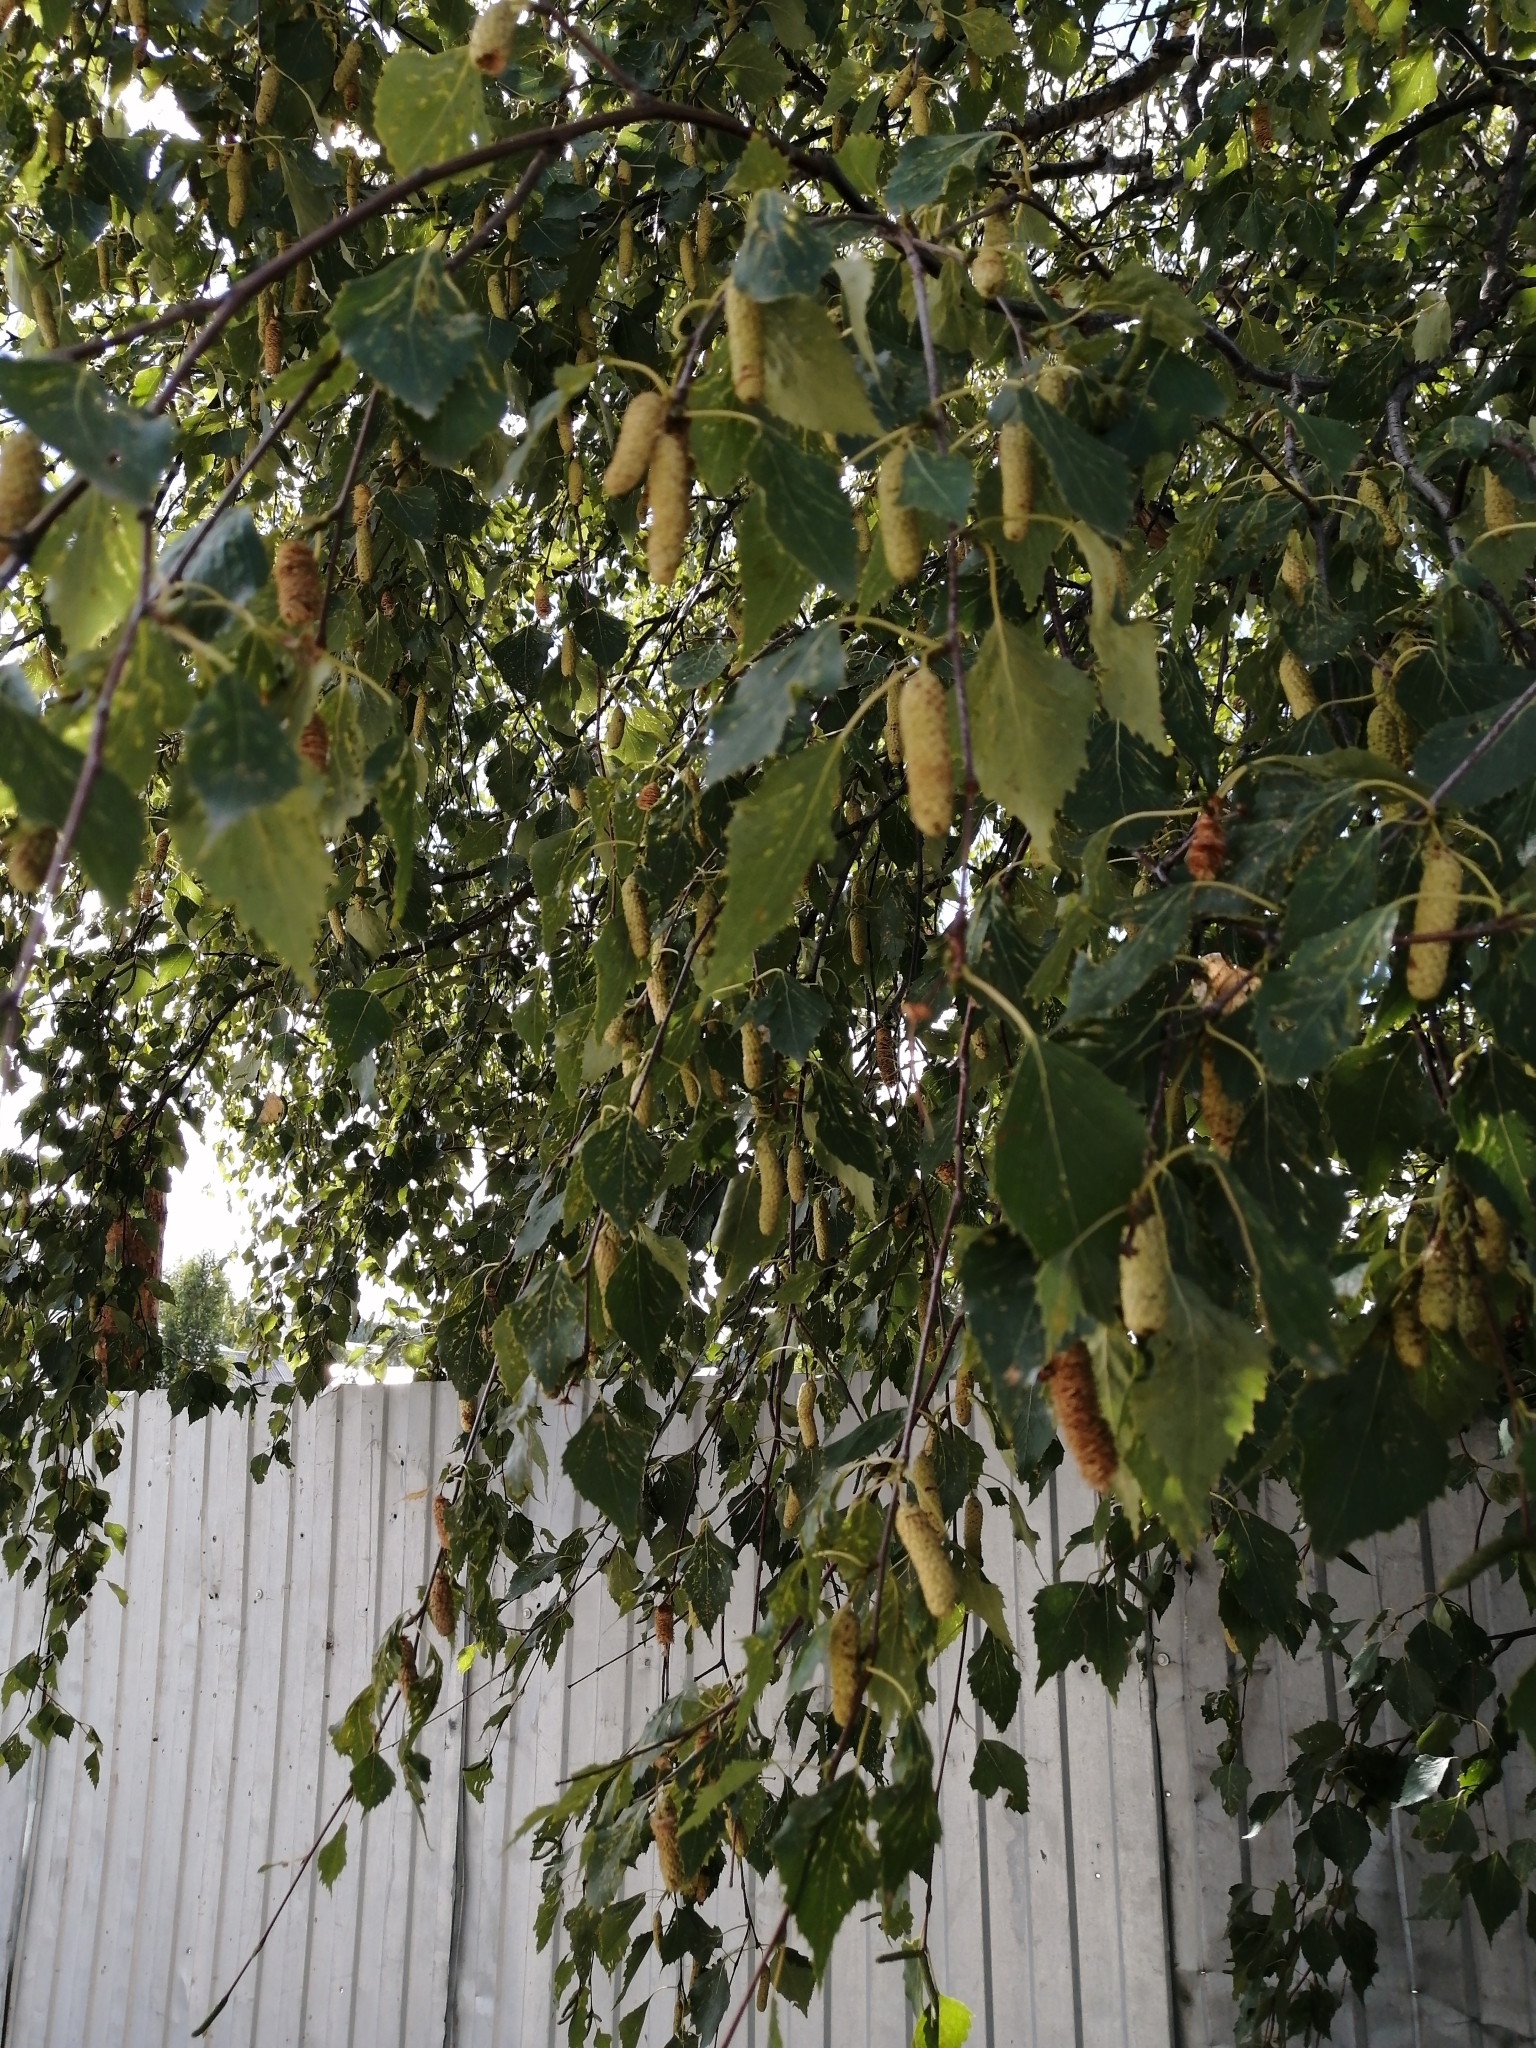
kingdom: Plantae
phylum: Tracheophyta
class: Magnoliopsida
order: Fagales
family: Betulaceae
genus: Betula
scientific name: Betula pendula
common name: Silver birch
